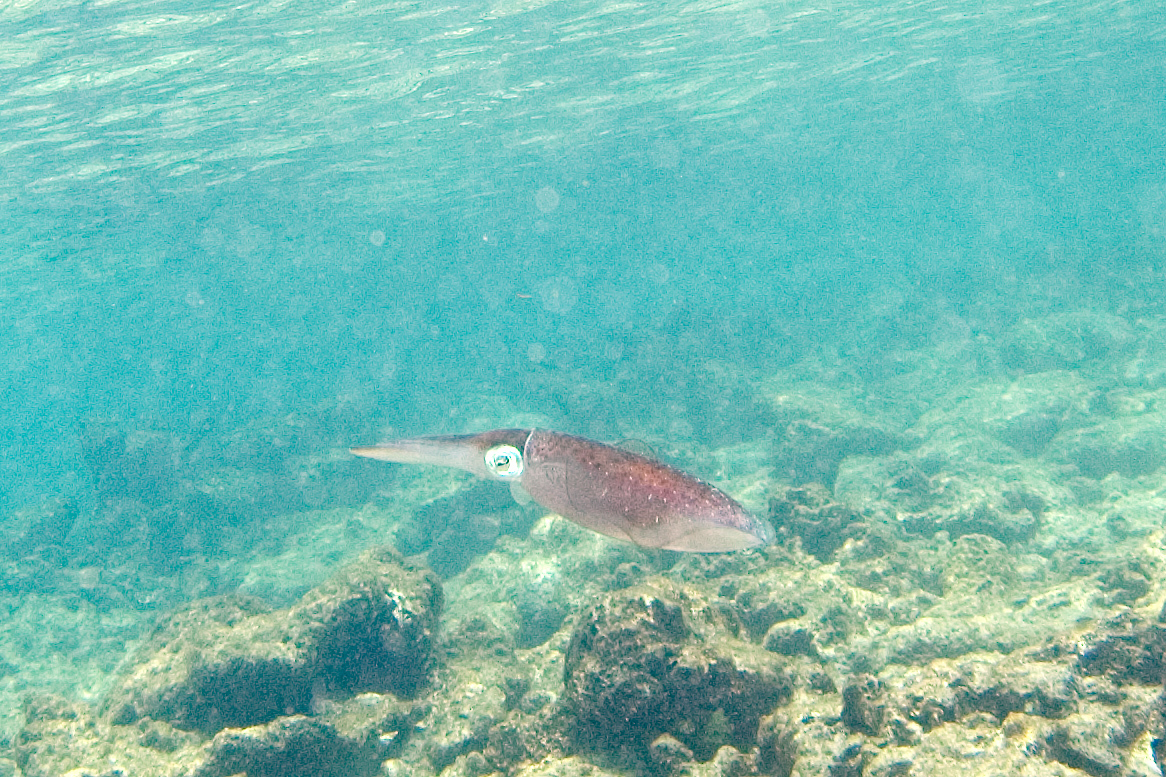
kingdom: Animalia
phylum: Mollusca
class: Cephalopoda
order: Myopsida
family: Loliginidae
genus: Sepioteuthis
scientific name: Sepioteuthis sepioidea
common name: Caribbean reef squid
